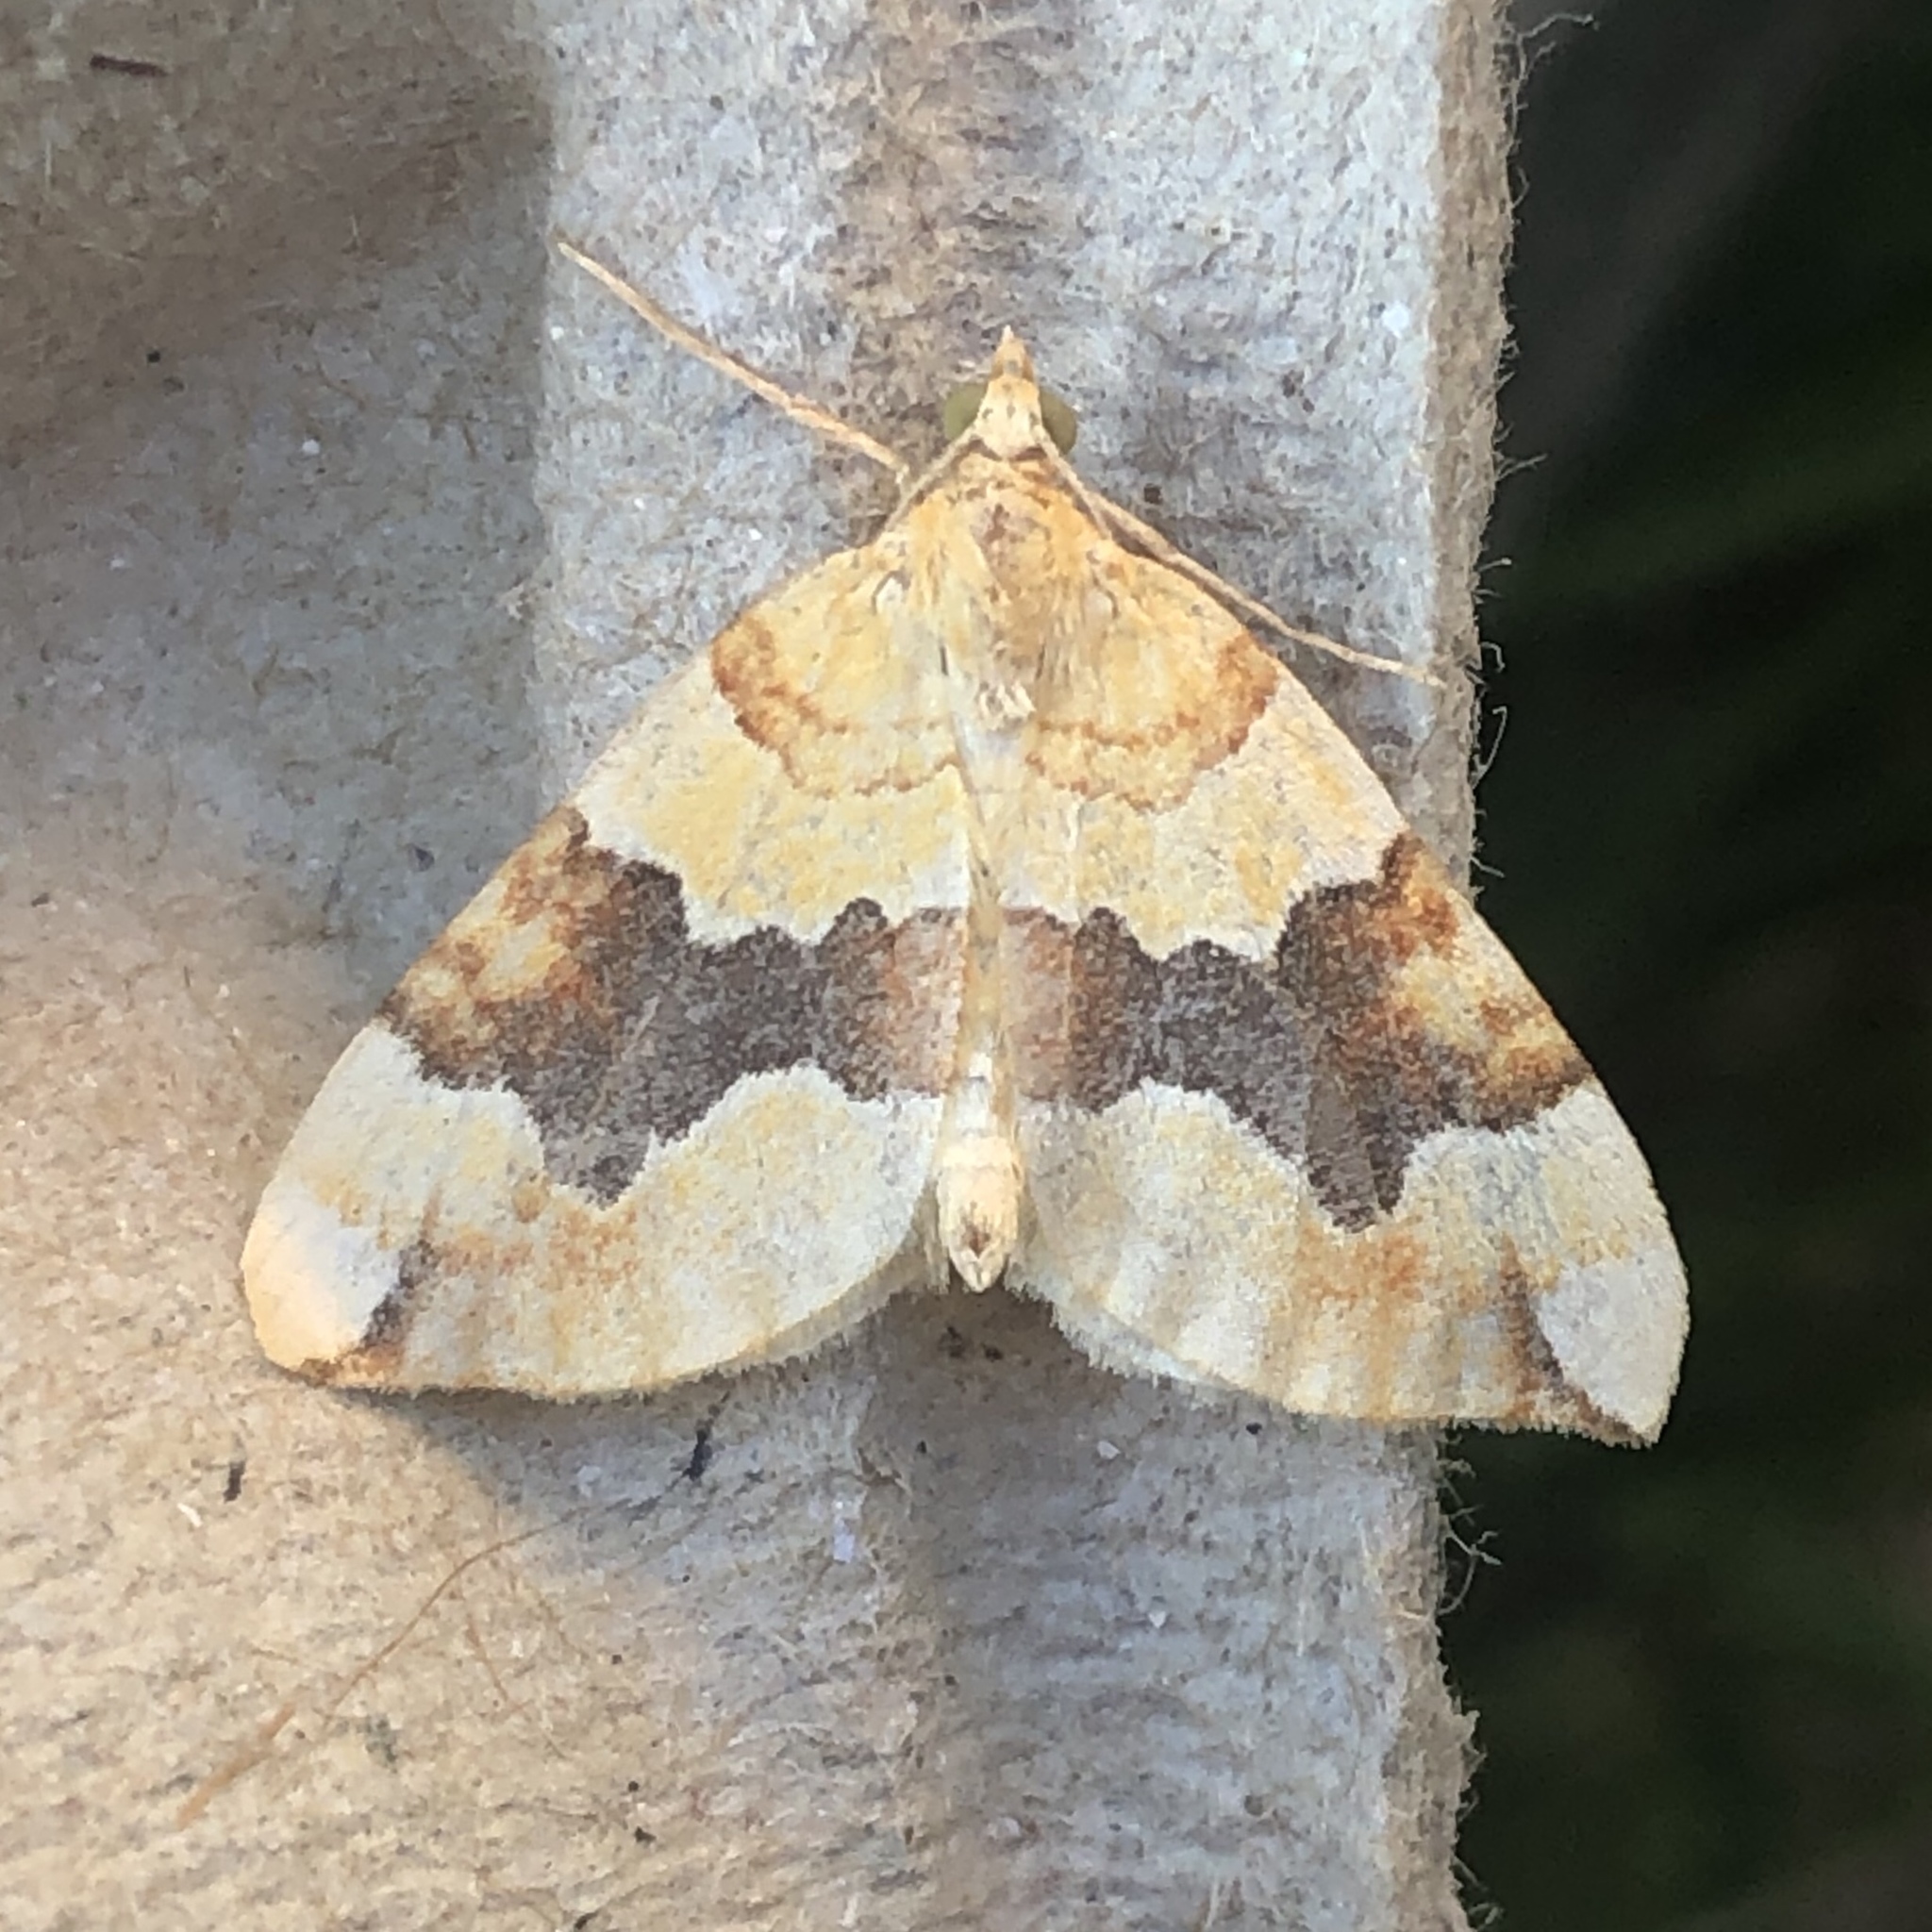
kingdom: Animalia
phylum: Arthropoda
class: Insecta
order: Lepidoptera
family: Geometridae
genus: Cidaria
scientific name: Cidaria fulvata
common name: Barred yellow
